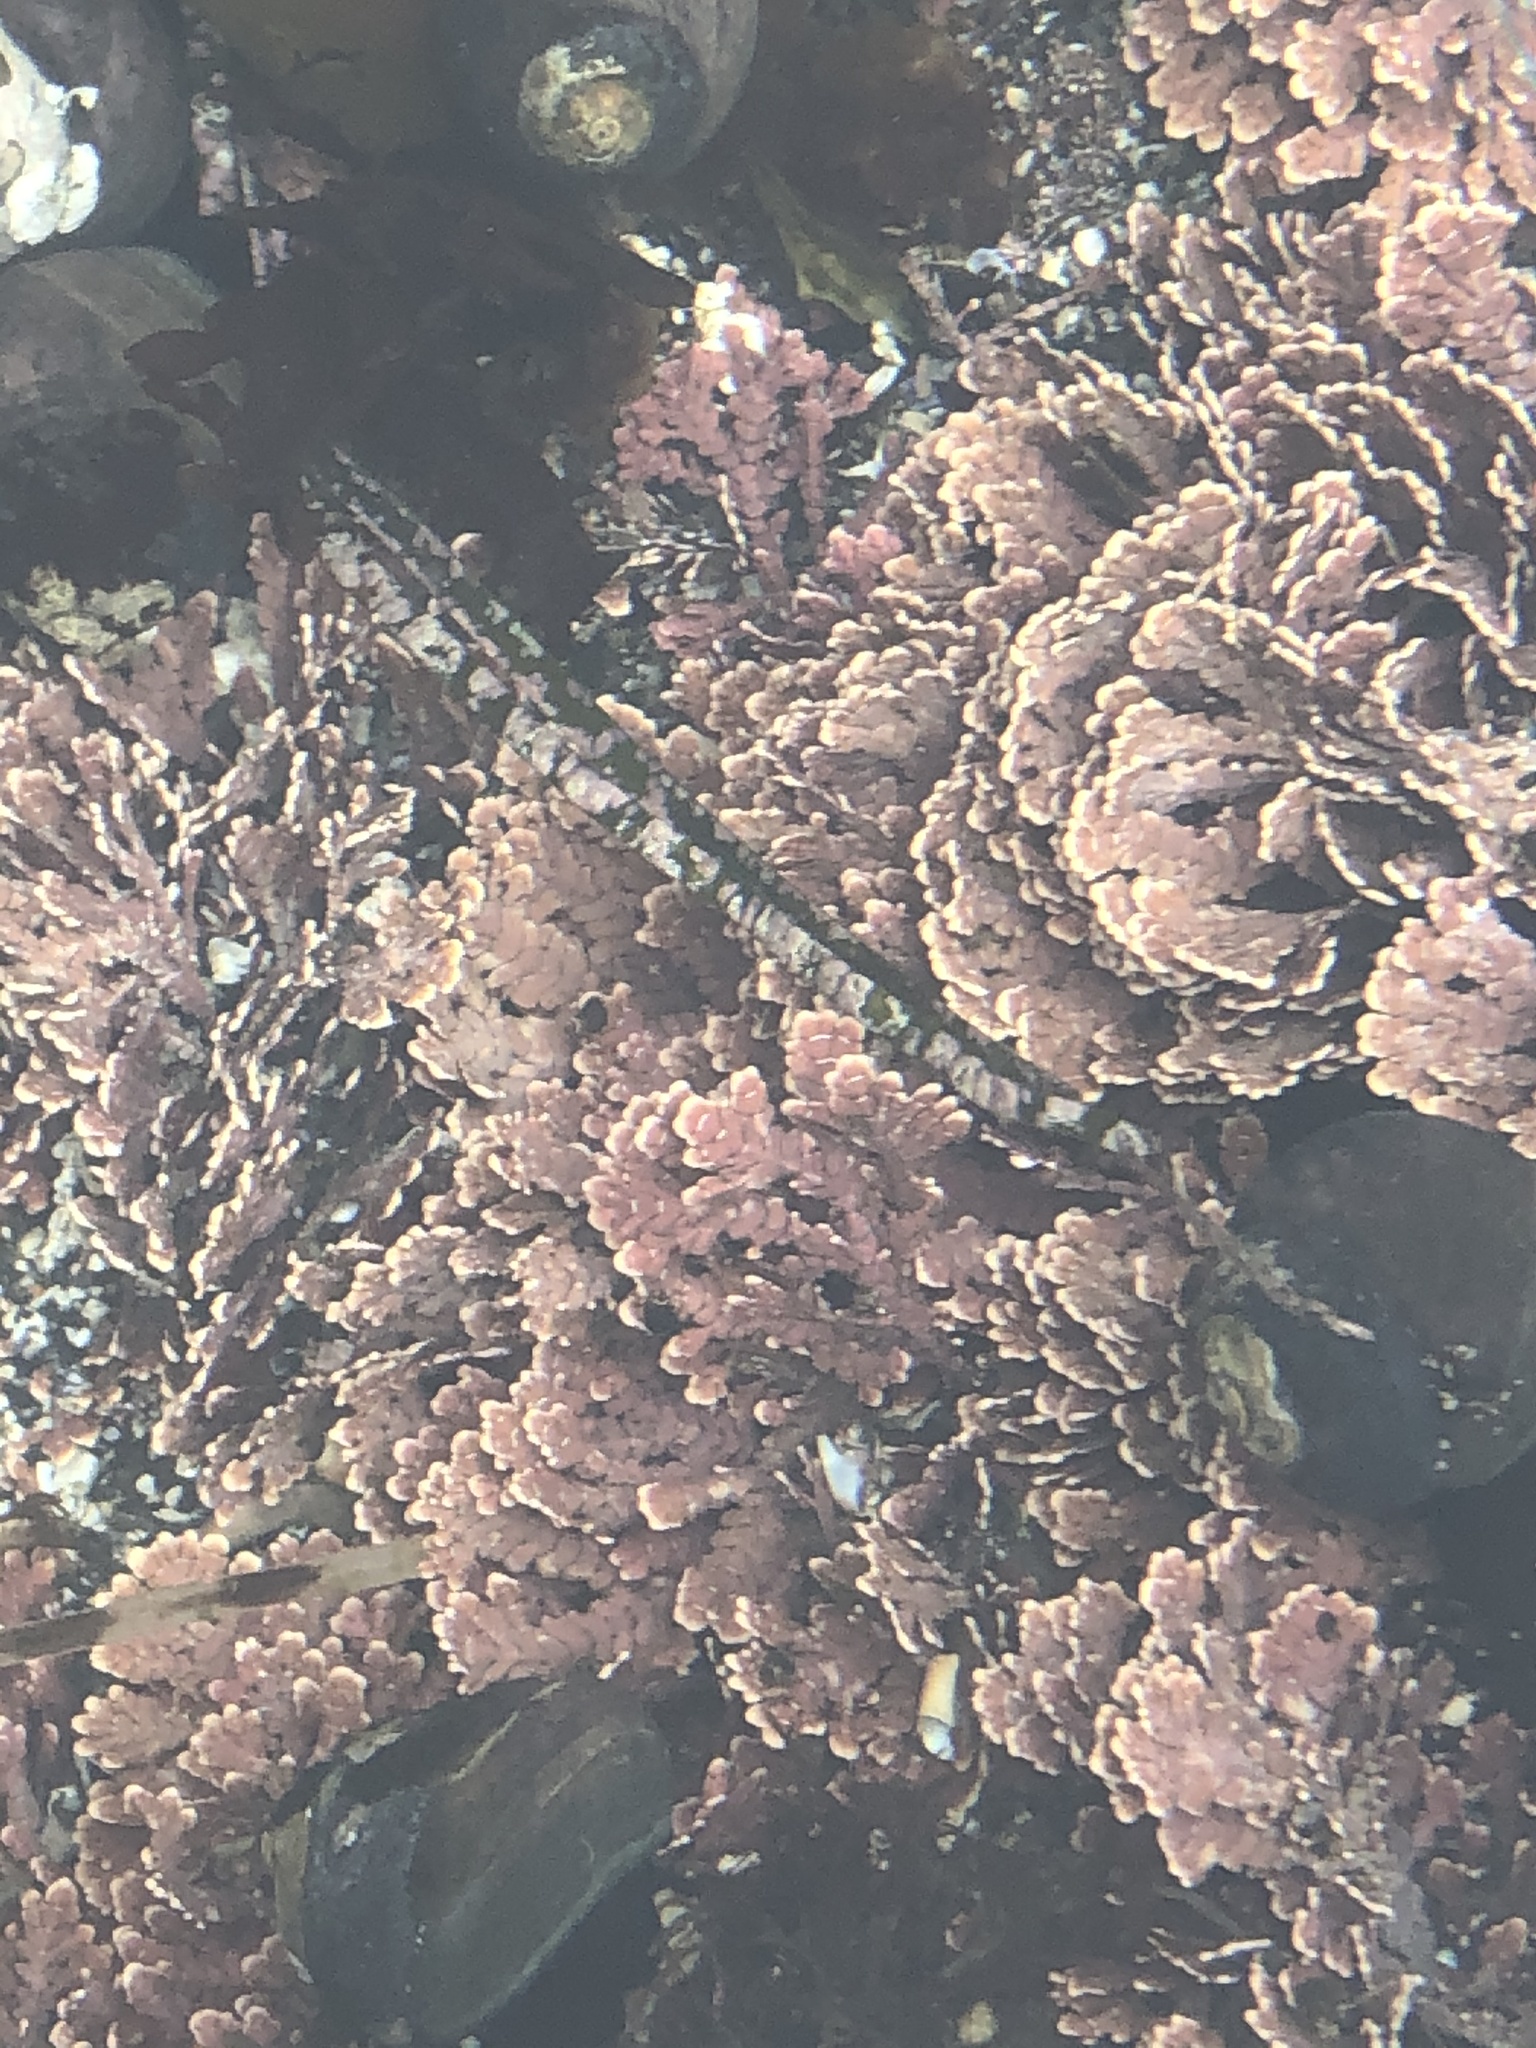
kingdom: Plantae
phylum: Rhodophyta
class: Florideophyceae
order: Corallinales
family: Hapalidiaceae
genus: Melobesia
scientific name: Melobesia mediocris
